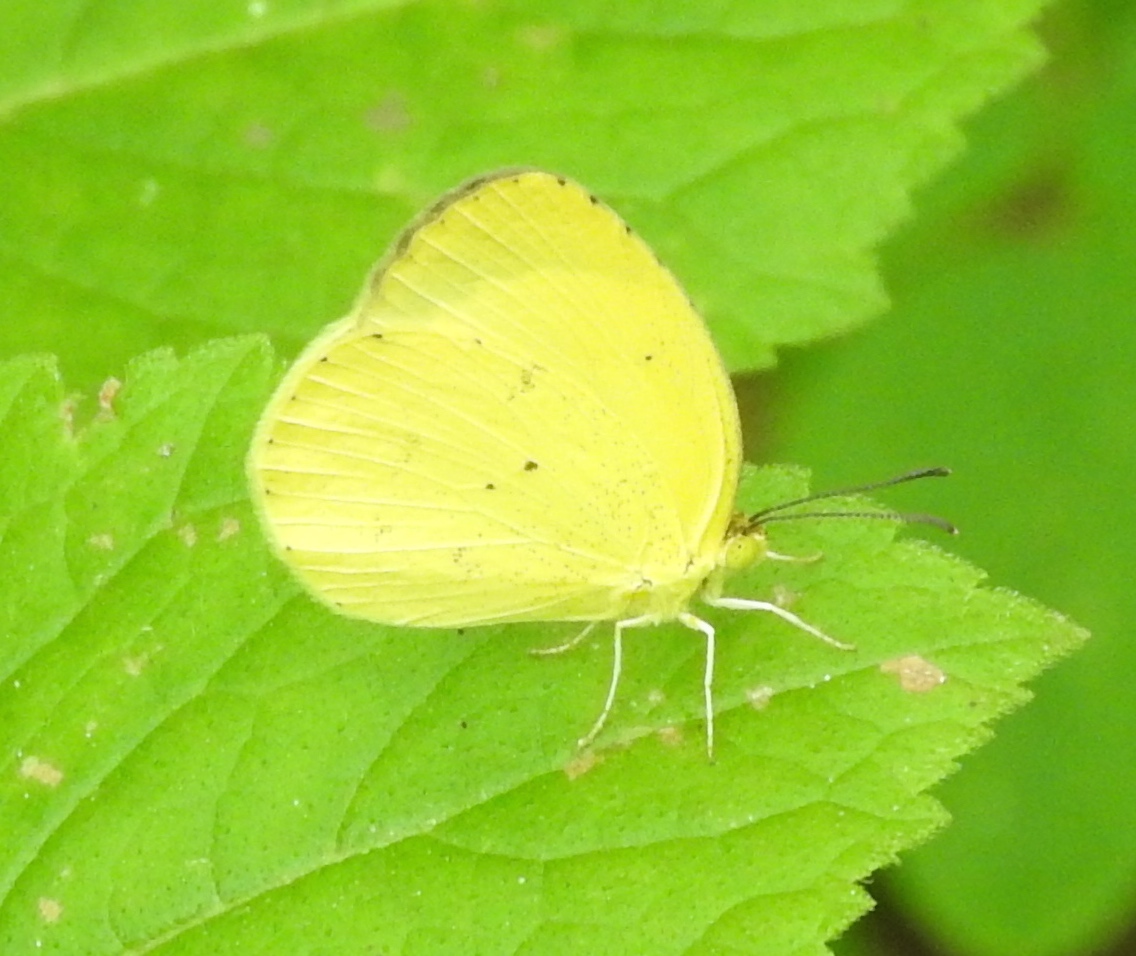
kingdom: Animalia
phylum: Arthropoda
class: Insecta
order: Lepidoptera
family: Pieridae
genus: Pyrisitia
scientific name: Pyrisitia nise
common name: Mimosa yellow
